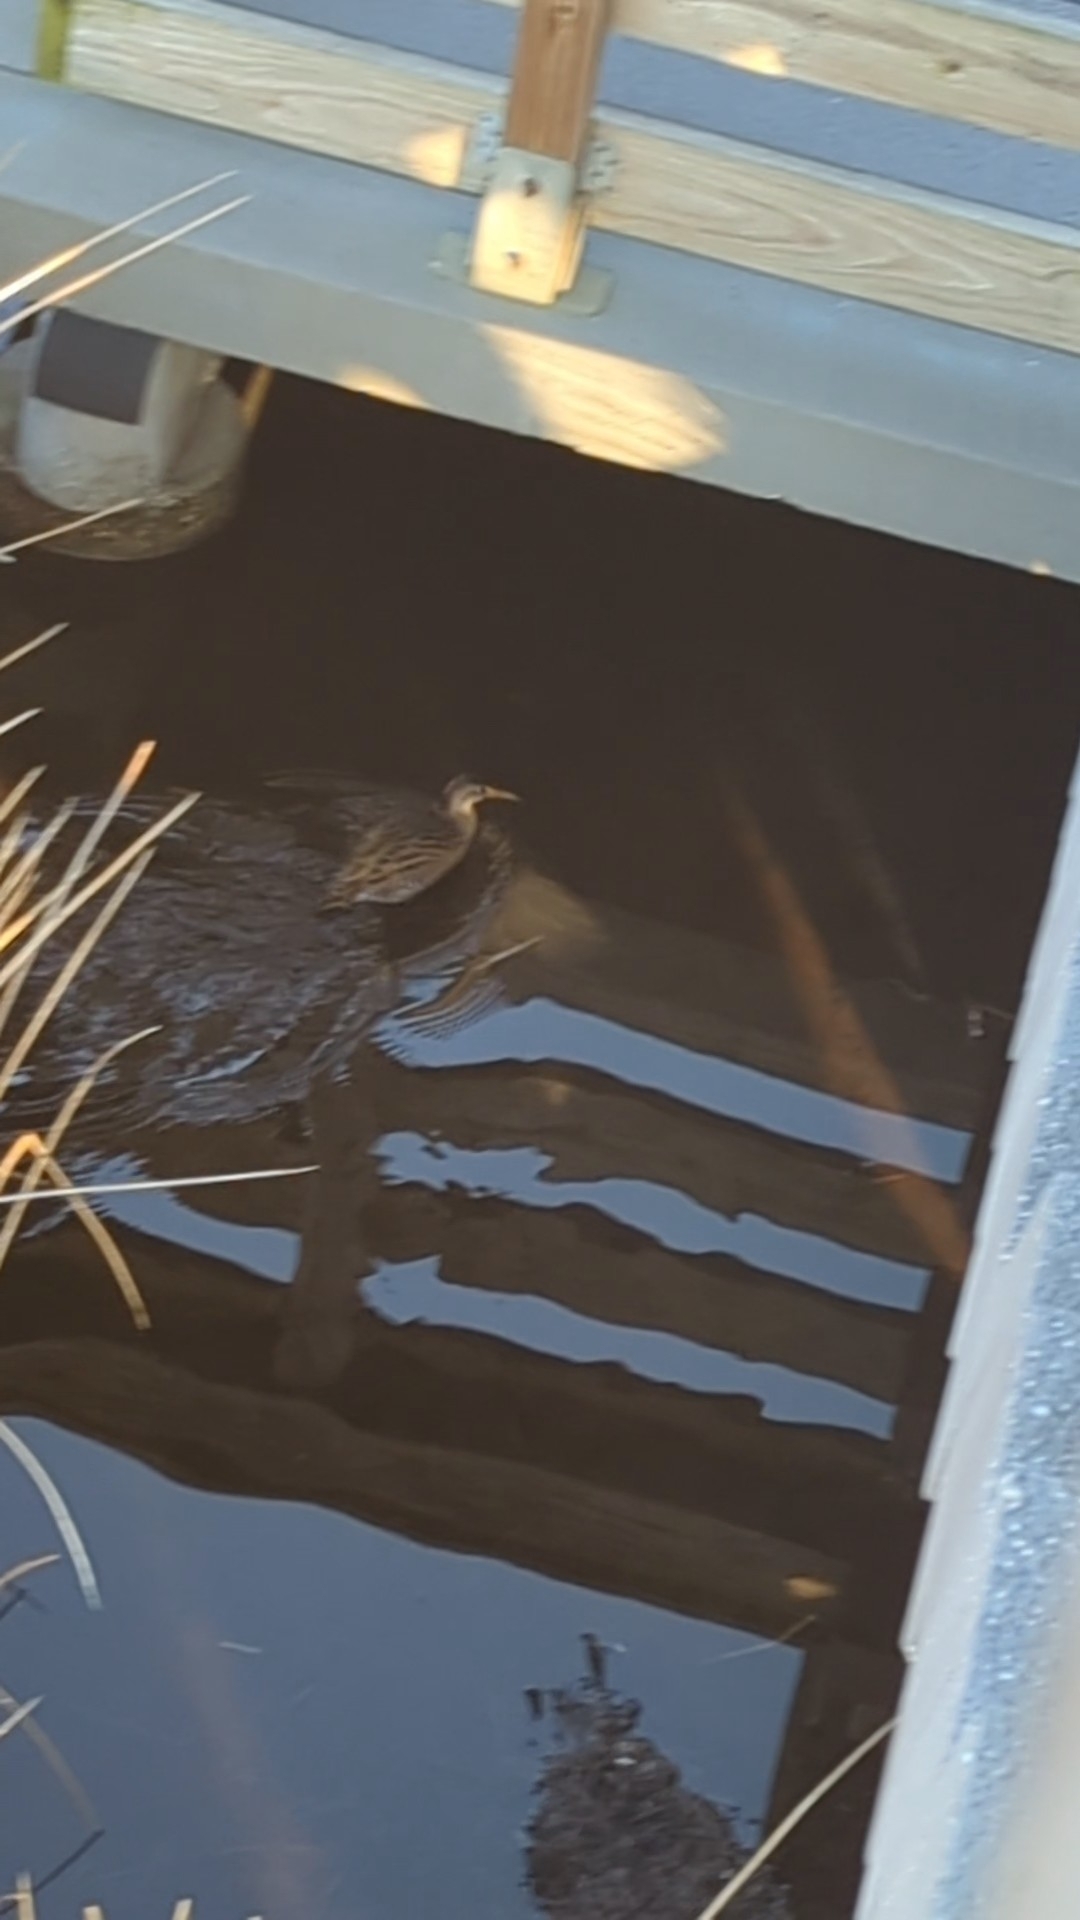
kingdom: Animalia
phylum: Chordata
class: Aves
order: Gruiformes
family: Rallidae
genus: Rallus
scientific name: Rallus elegans
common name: King rail
